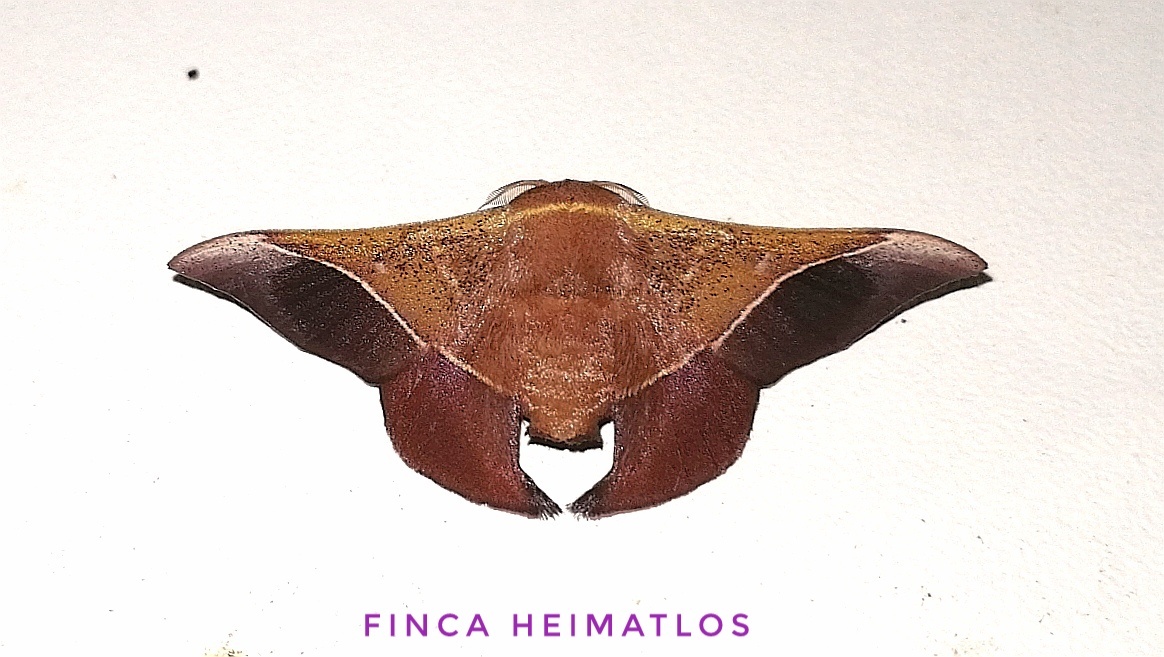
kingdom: Animalia
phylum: Arthropoda
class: Insecta
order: Lepidoptera
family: Mimallonidae
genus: Alheita
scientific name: Alheita caudina
